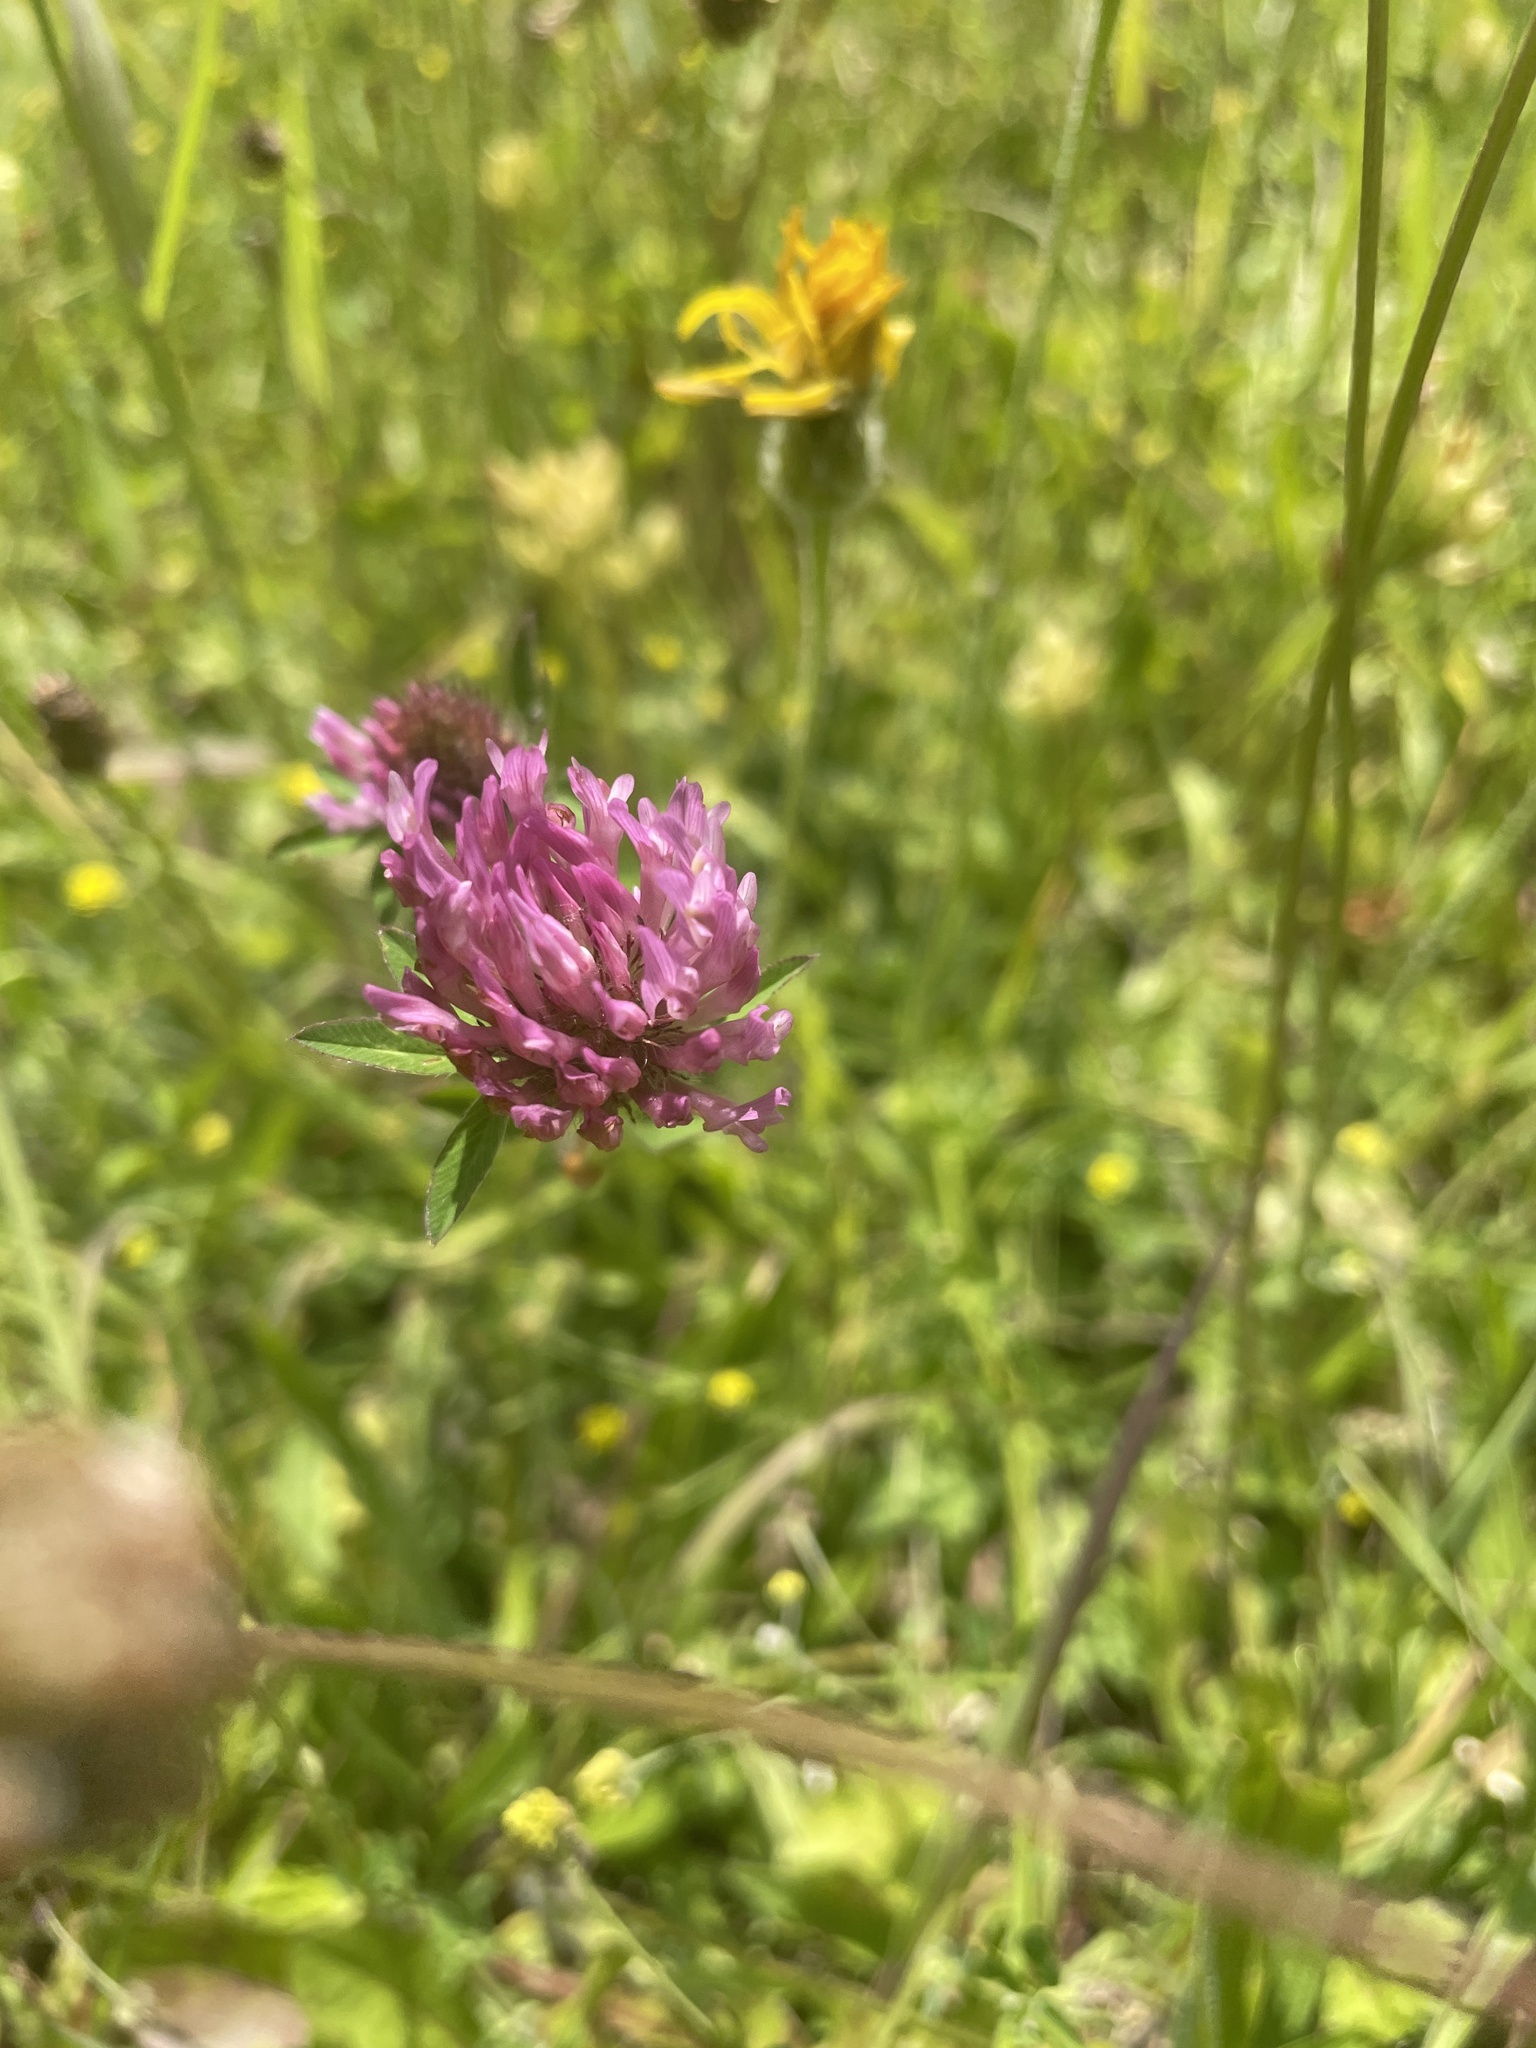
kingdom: Plantae
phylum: Tracheophyta
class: Magnoliopsida
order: Fabales
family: Fabaceae
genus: Trifolium
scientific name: Trifolium pratense
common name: Red clover
